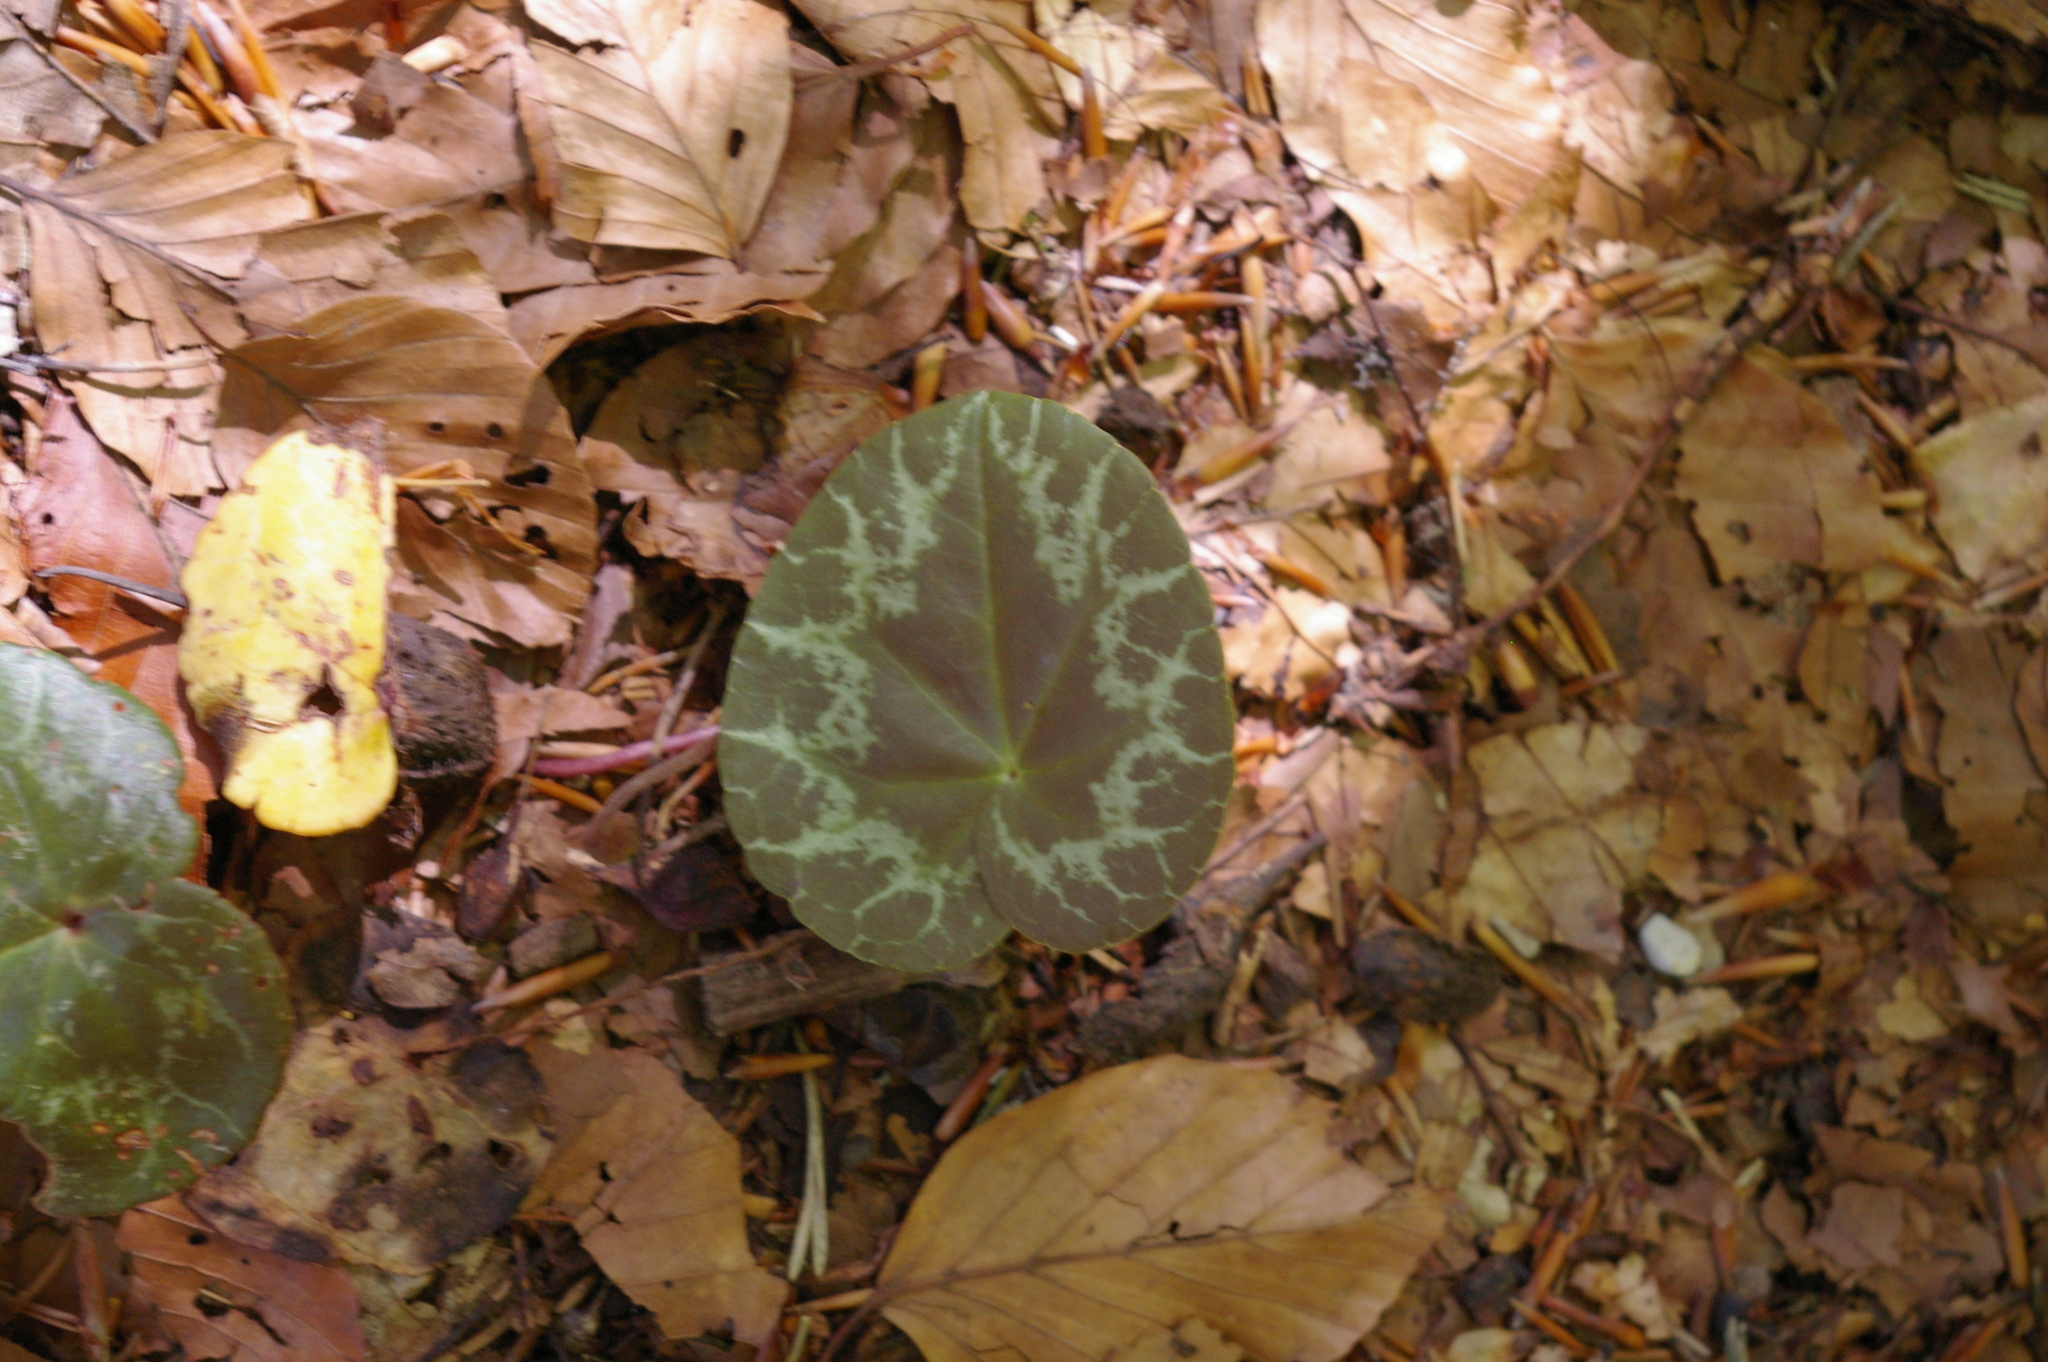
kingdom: Plantae
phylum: Tracheophyta
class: Magnoliopsida
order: Ericales
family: Primulaceae
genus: Cyclamen
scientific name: Cyclamen purpurascens
